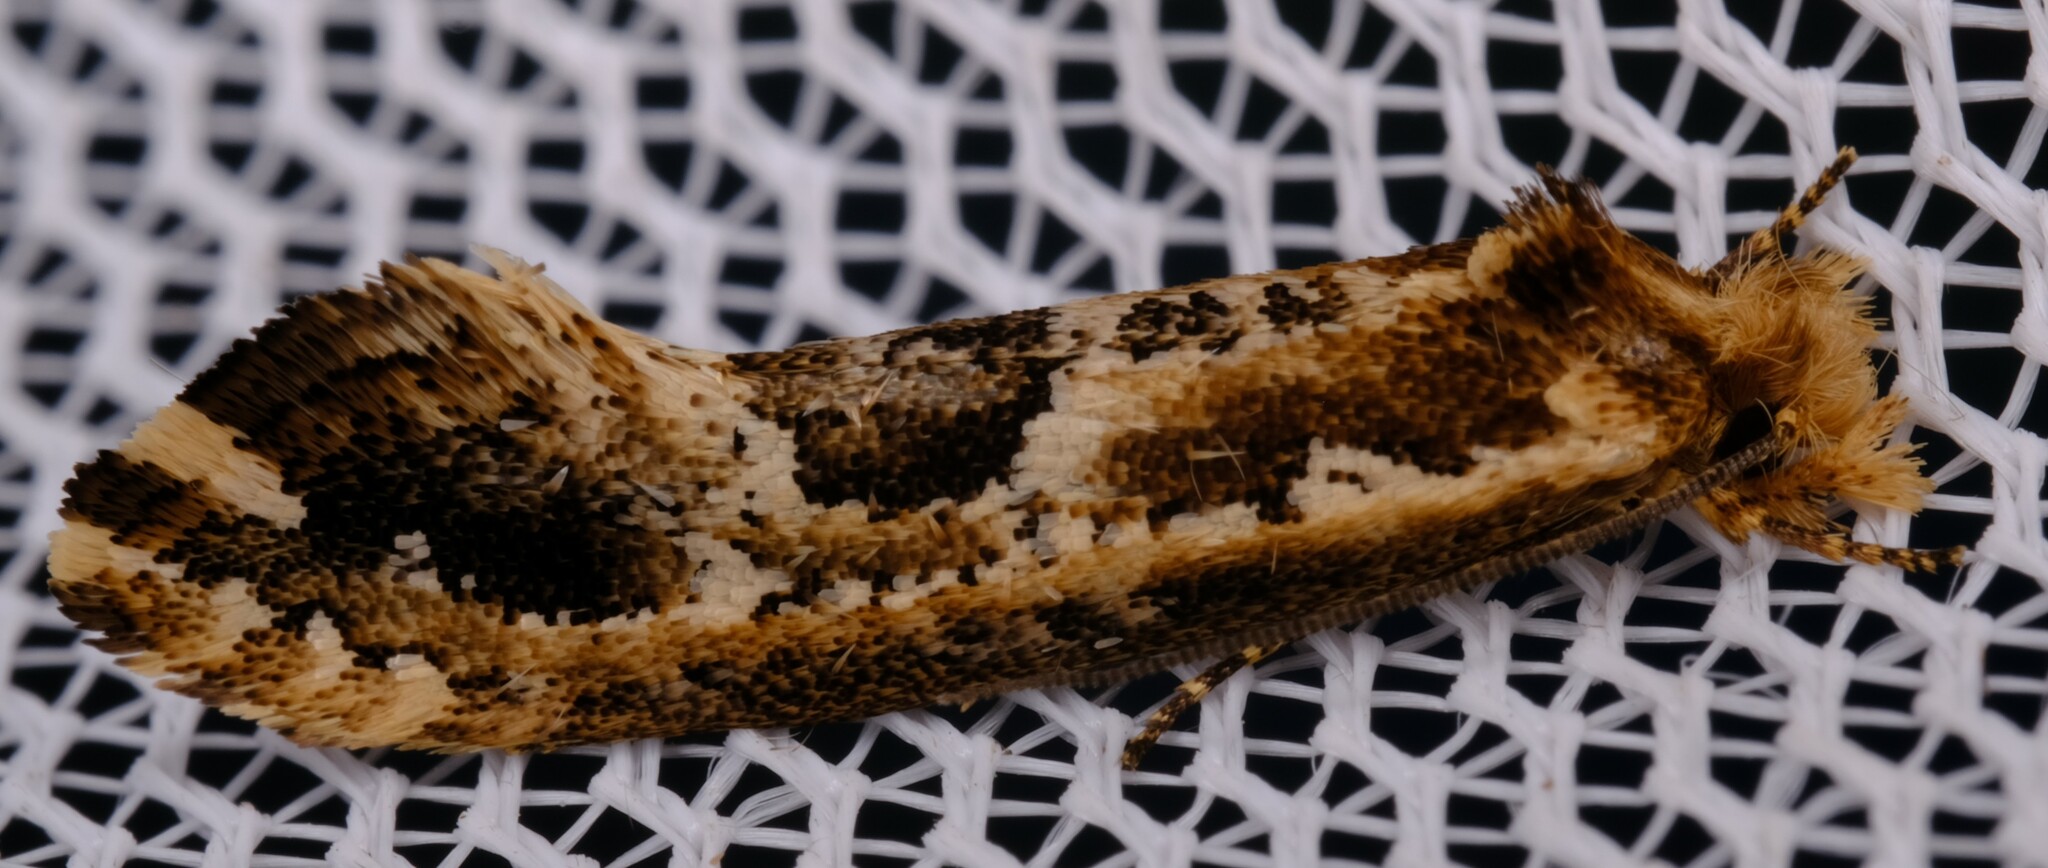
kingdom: Animalia
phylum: Arthropoda
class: Insecta
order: Lepidoptera
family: Tineidae
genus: Moerarchis
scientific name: Moerarchis inconcisella
